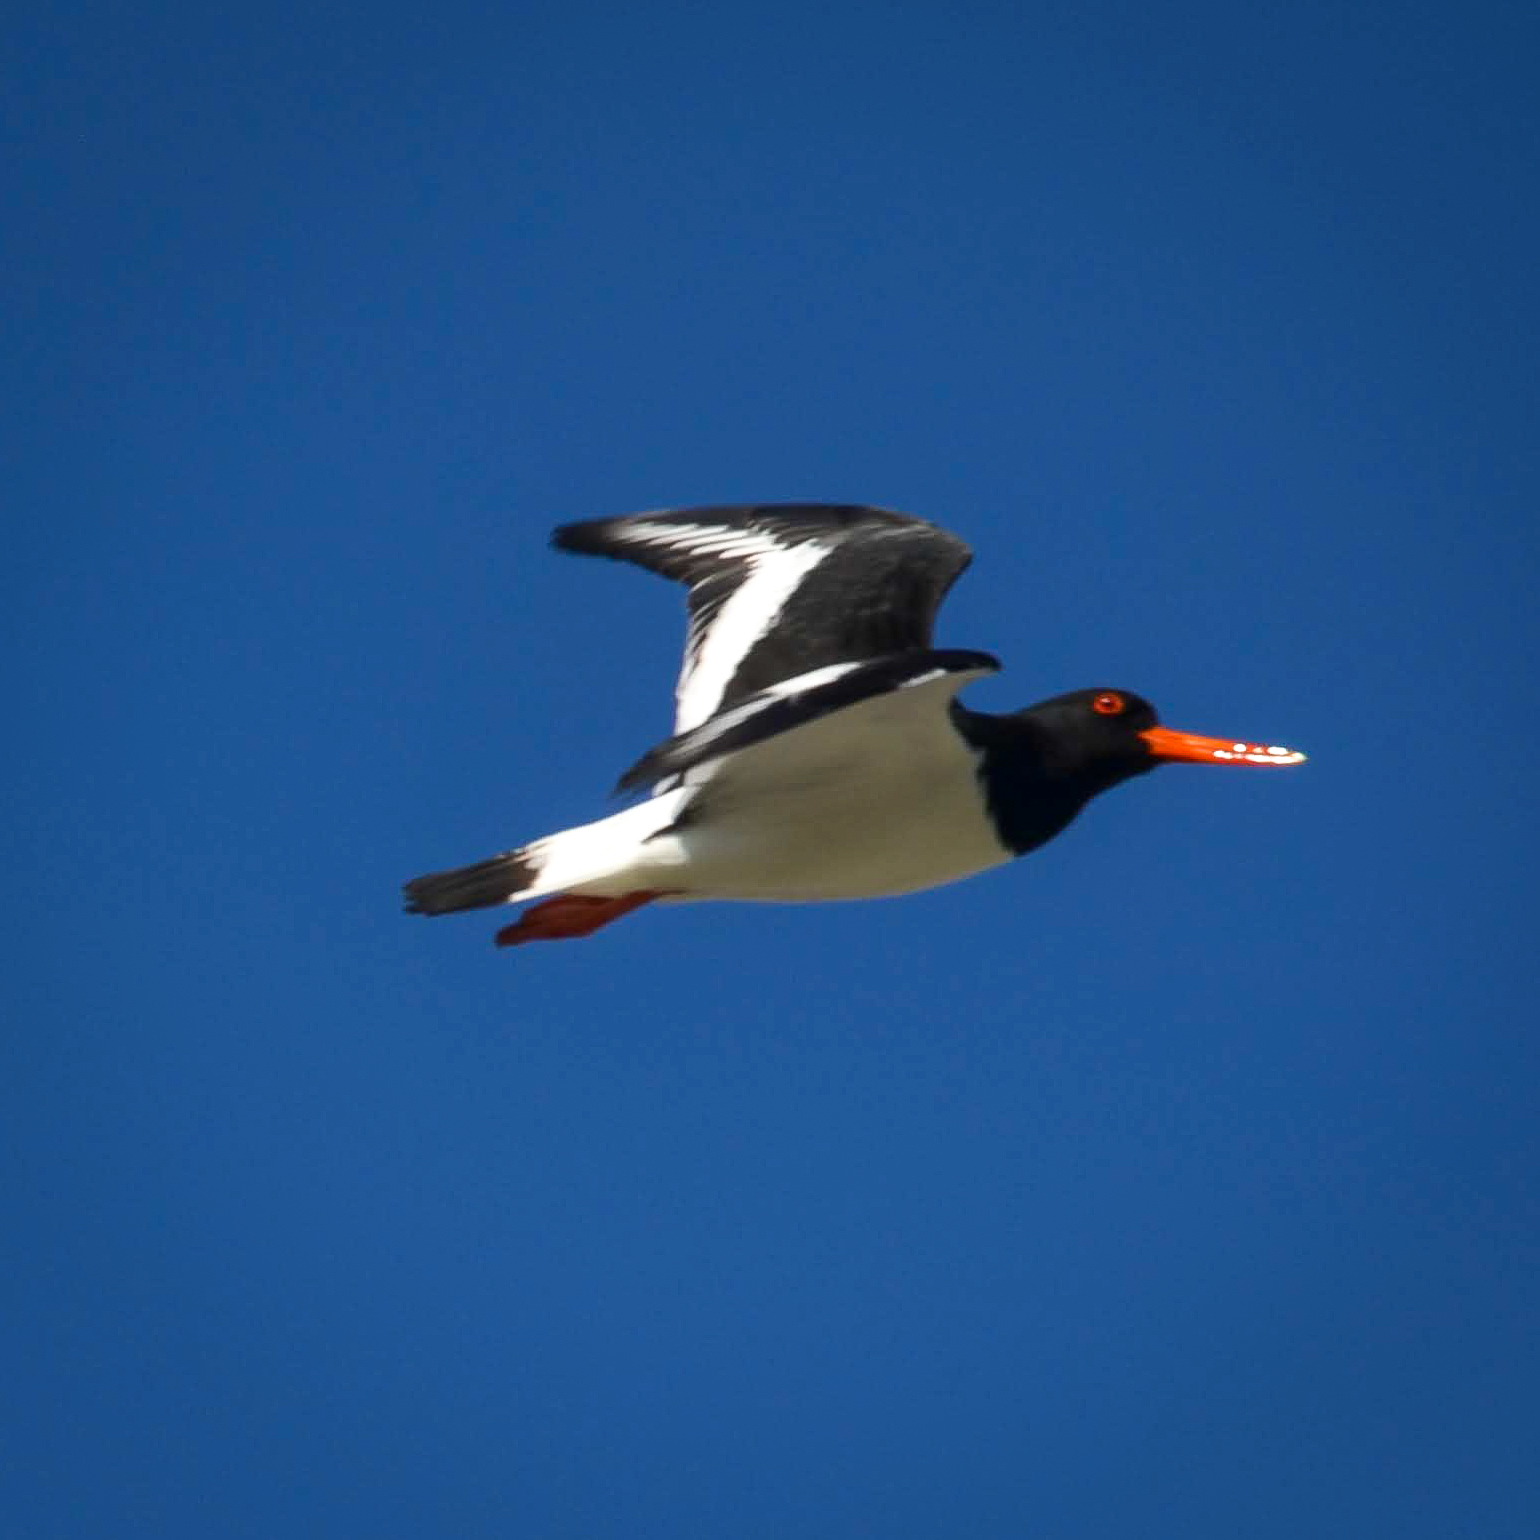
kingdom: Animalia
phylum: Chordata
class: Aves
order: Charadriiformes
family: Haematopodidae
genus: Haematopus
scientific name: Haematopus ostralegus
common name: Eurasian oystercatcher
